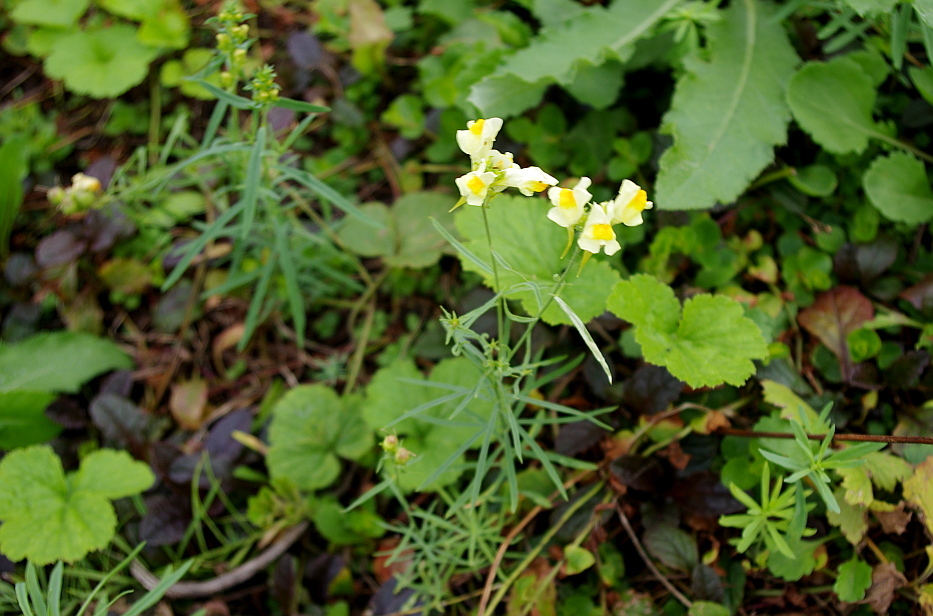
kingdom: Plantae
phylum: Tracheophyta
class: Magnoliopsida
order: Lamiales
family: Plantaginaceae
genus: Linaria
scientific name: Linaria vulgaris
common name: Butter and eggs
